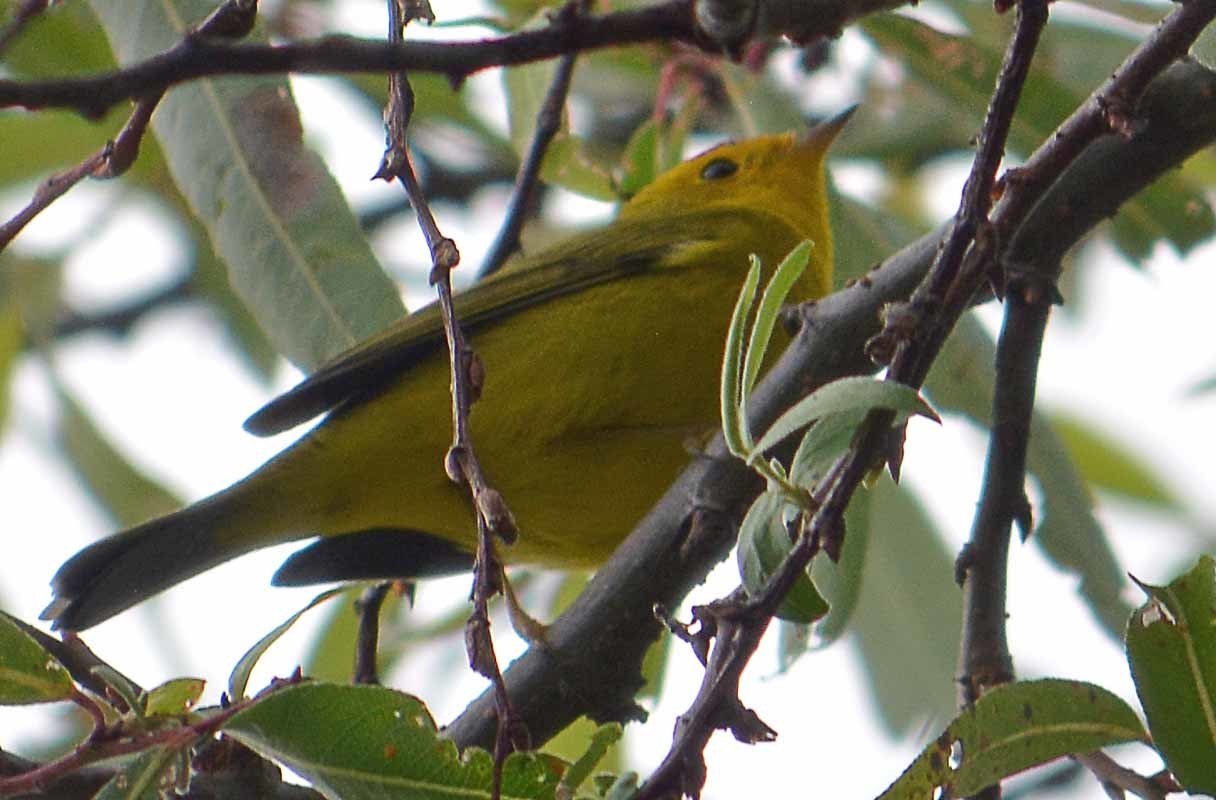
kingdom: Animalia
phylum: Chordata
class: Aves
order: Passeriformes
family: Parulidae
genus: Cardellina
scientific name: Cardellina pusilla
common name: Wilson's warbler
